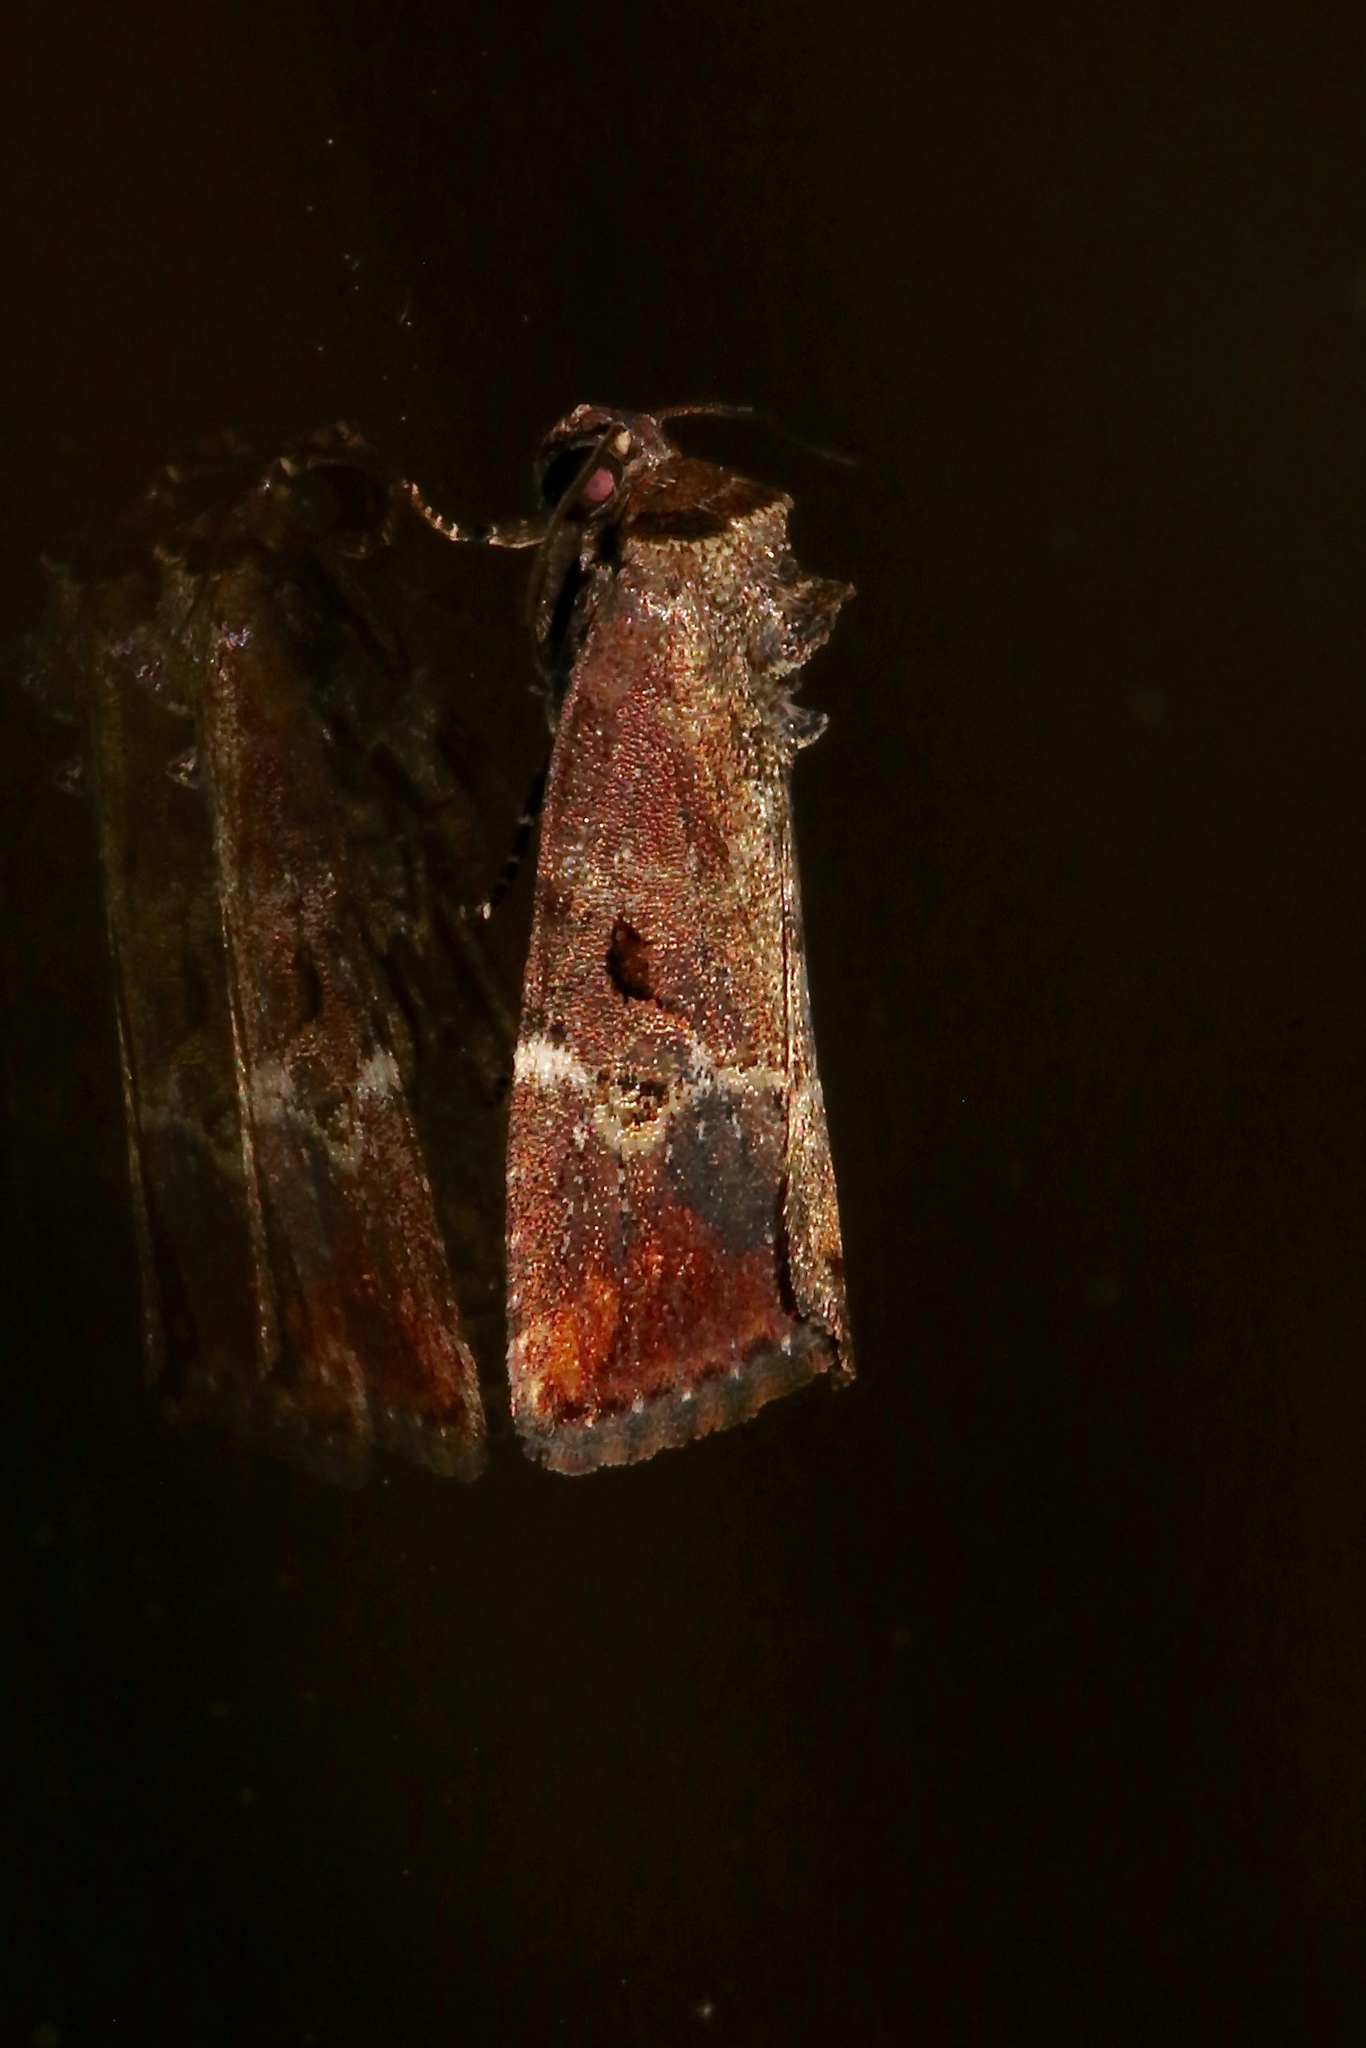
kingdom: Animalia
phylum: Arthropoda
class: Insecta
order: Lepidoptera
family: Noctuidae
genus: Elaphria
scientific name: Elaphria versicolor
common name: Fir harlequin
